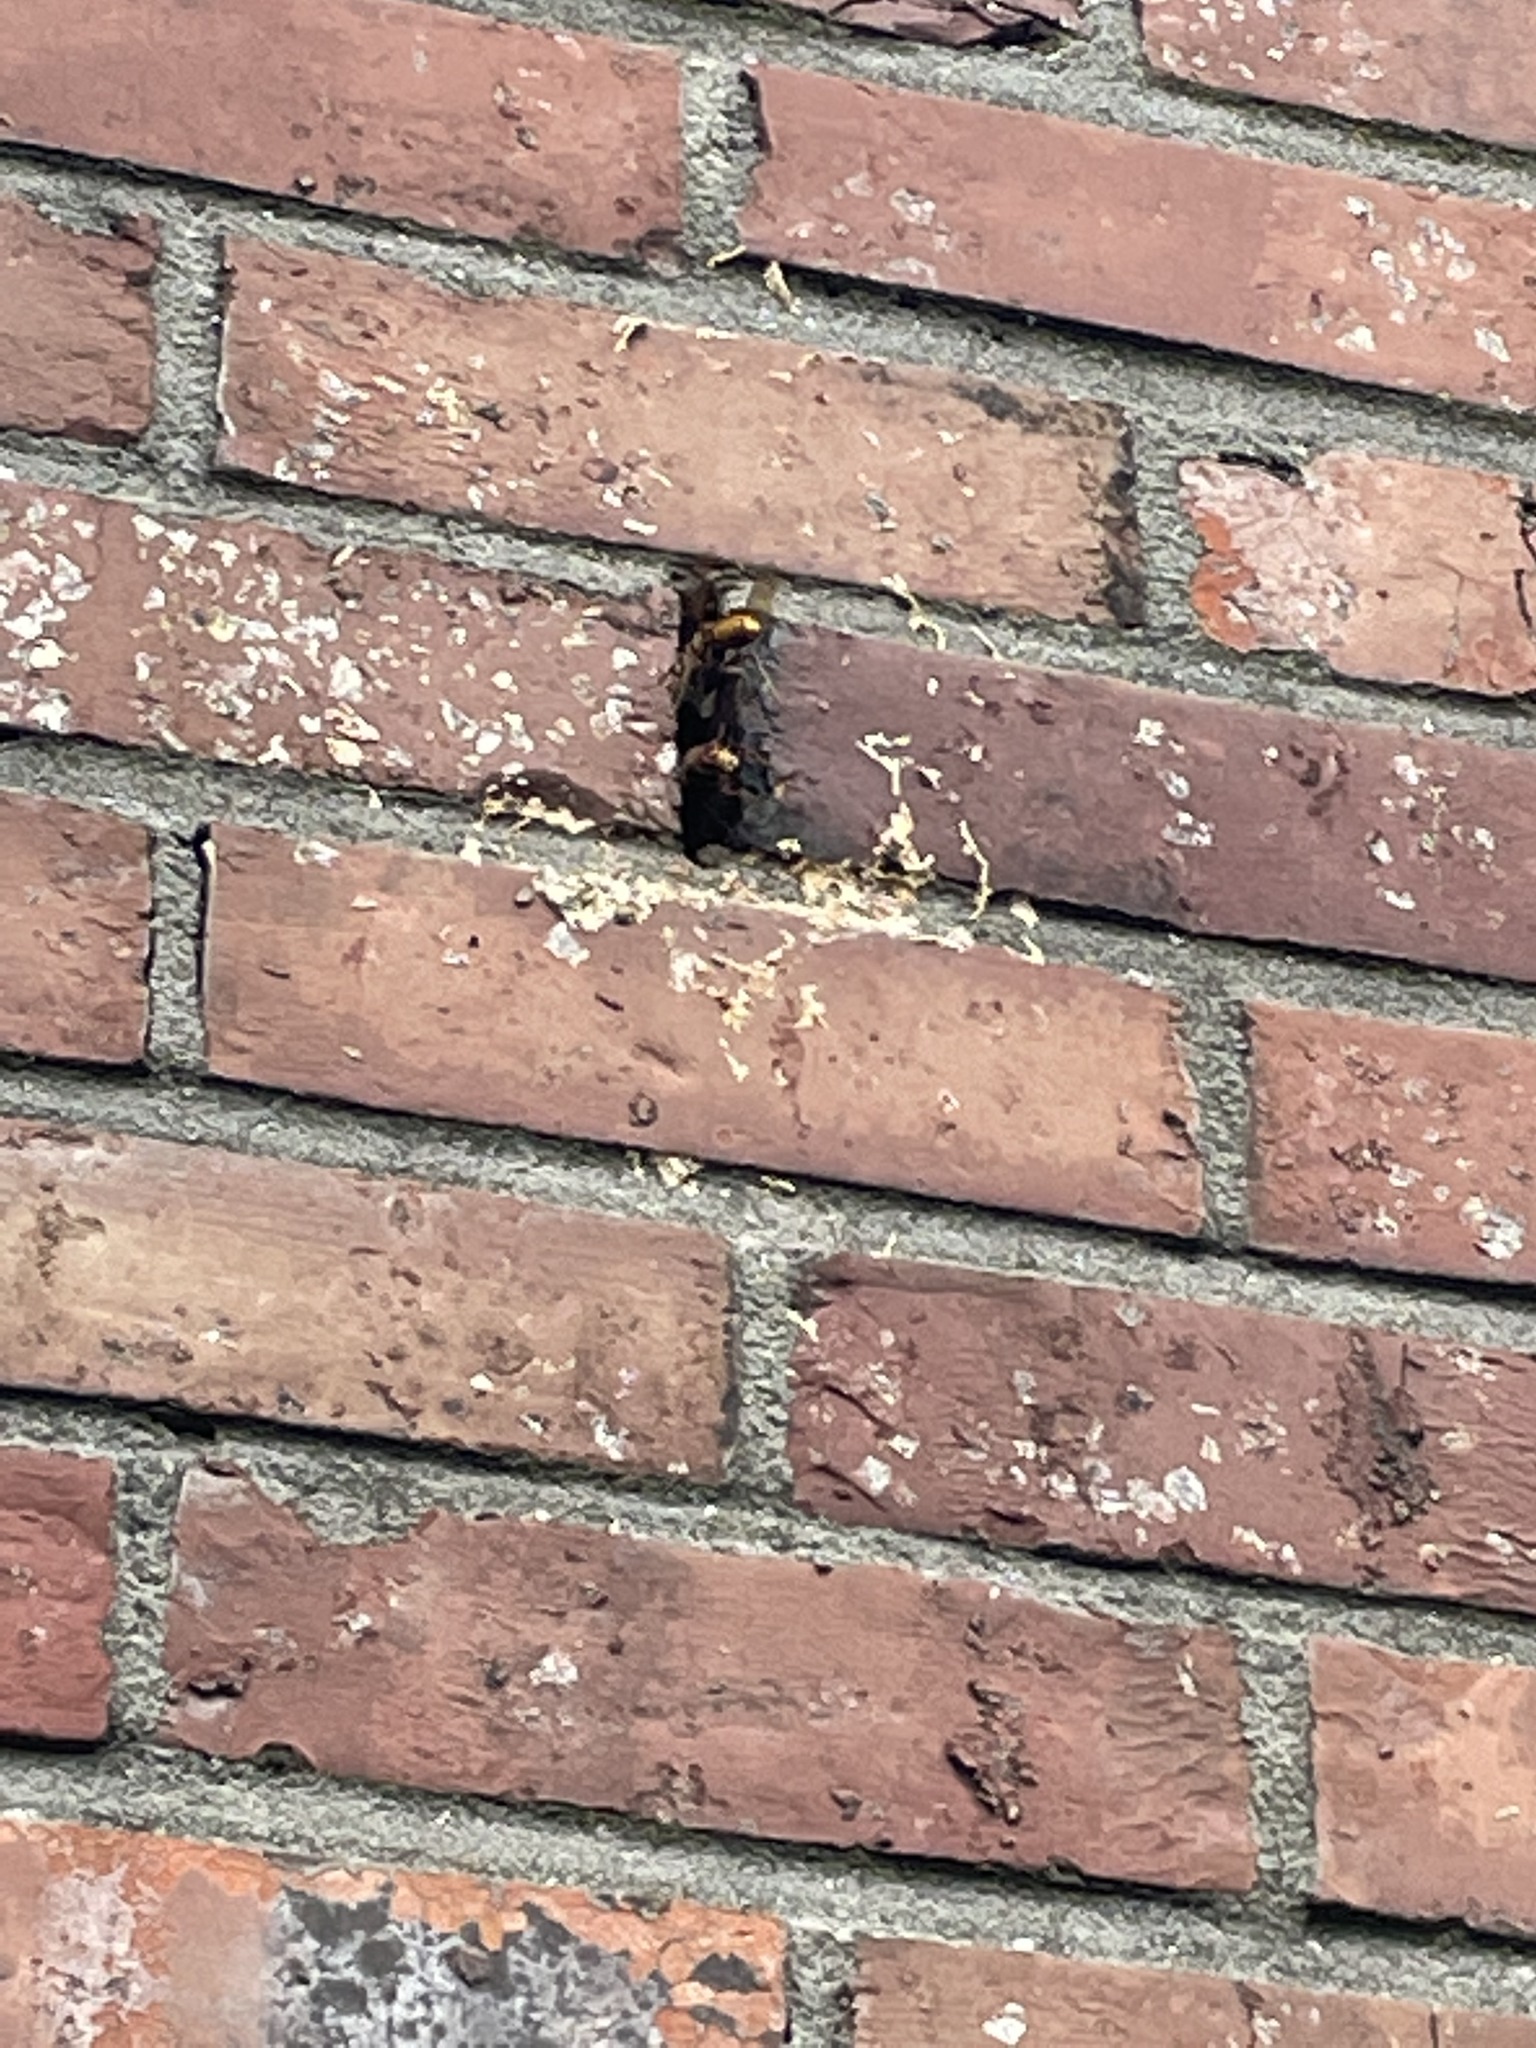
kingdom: Animalia
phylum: Arthropoda
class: Insecta
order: Hymenoptera
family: Vespidae
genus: Vespa
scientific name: Vespa crabro
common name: Hornet
